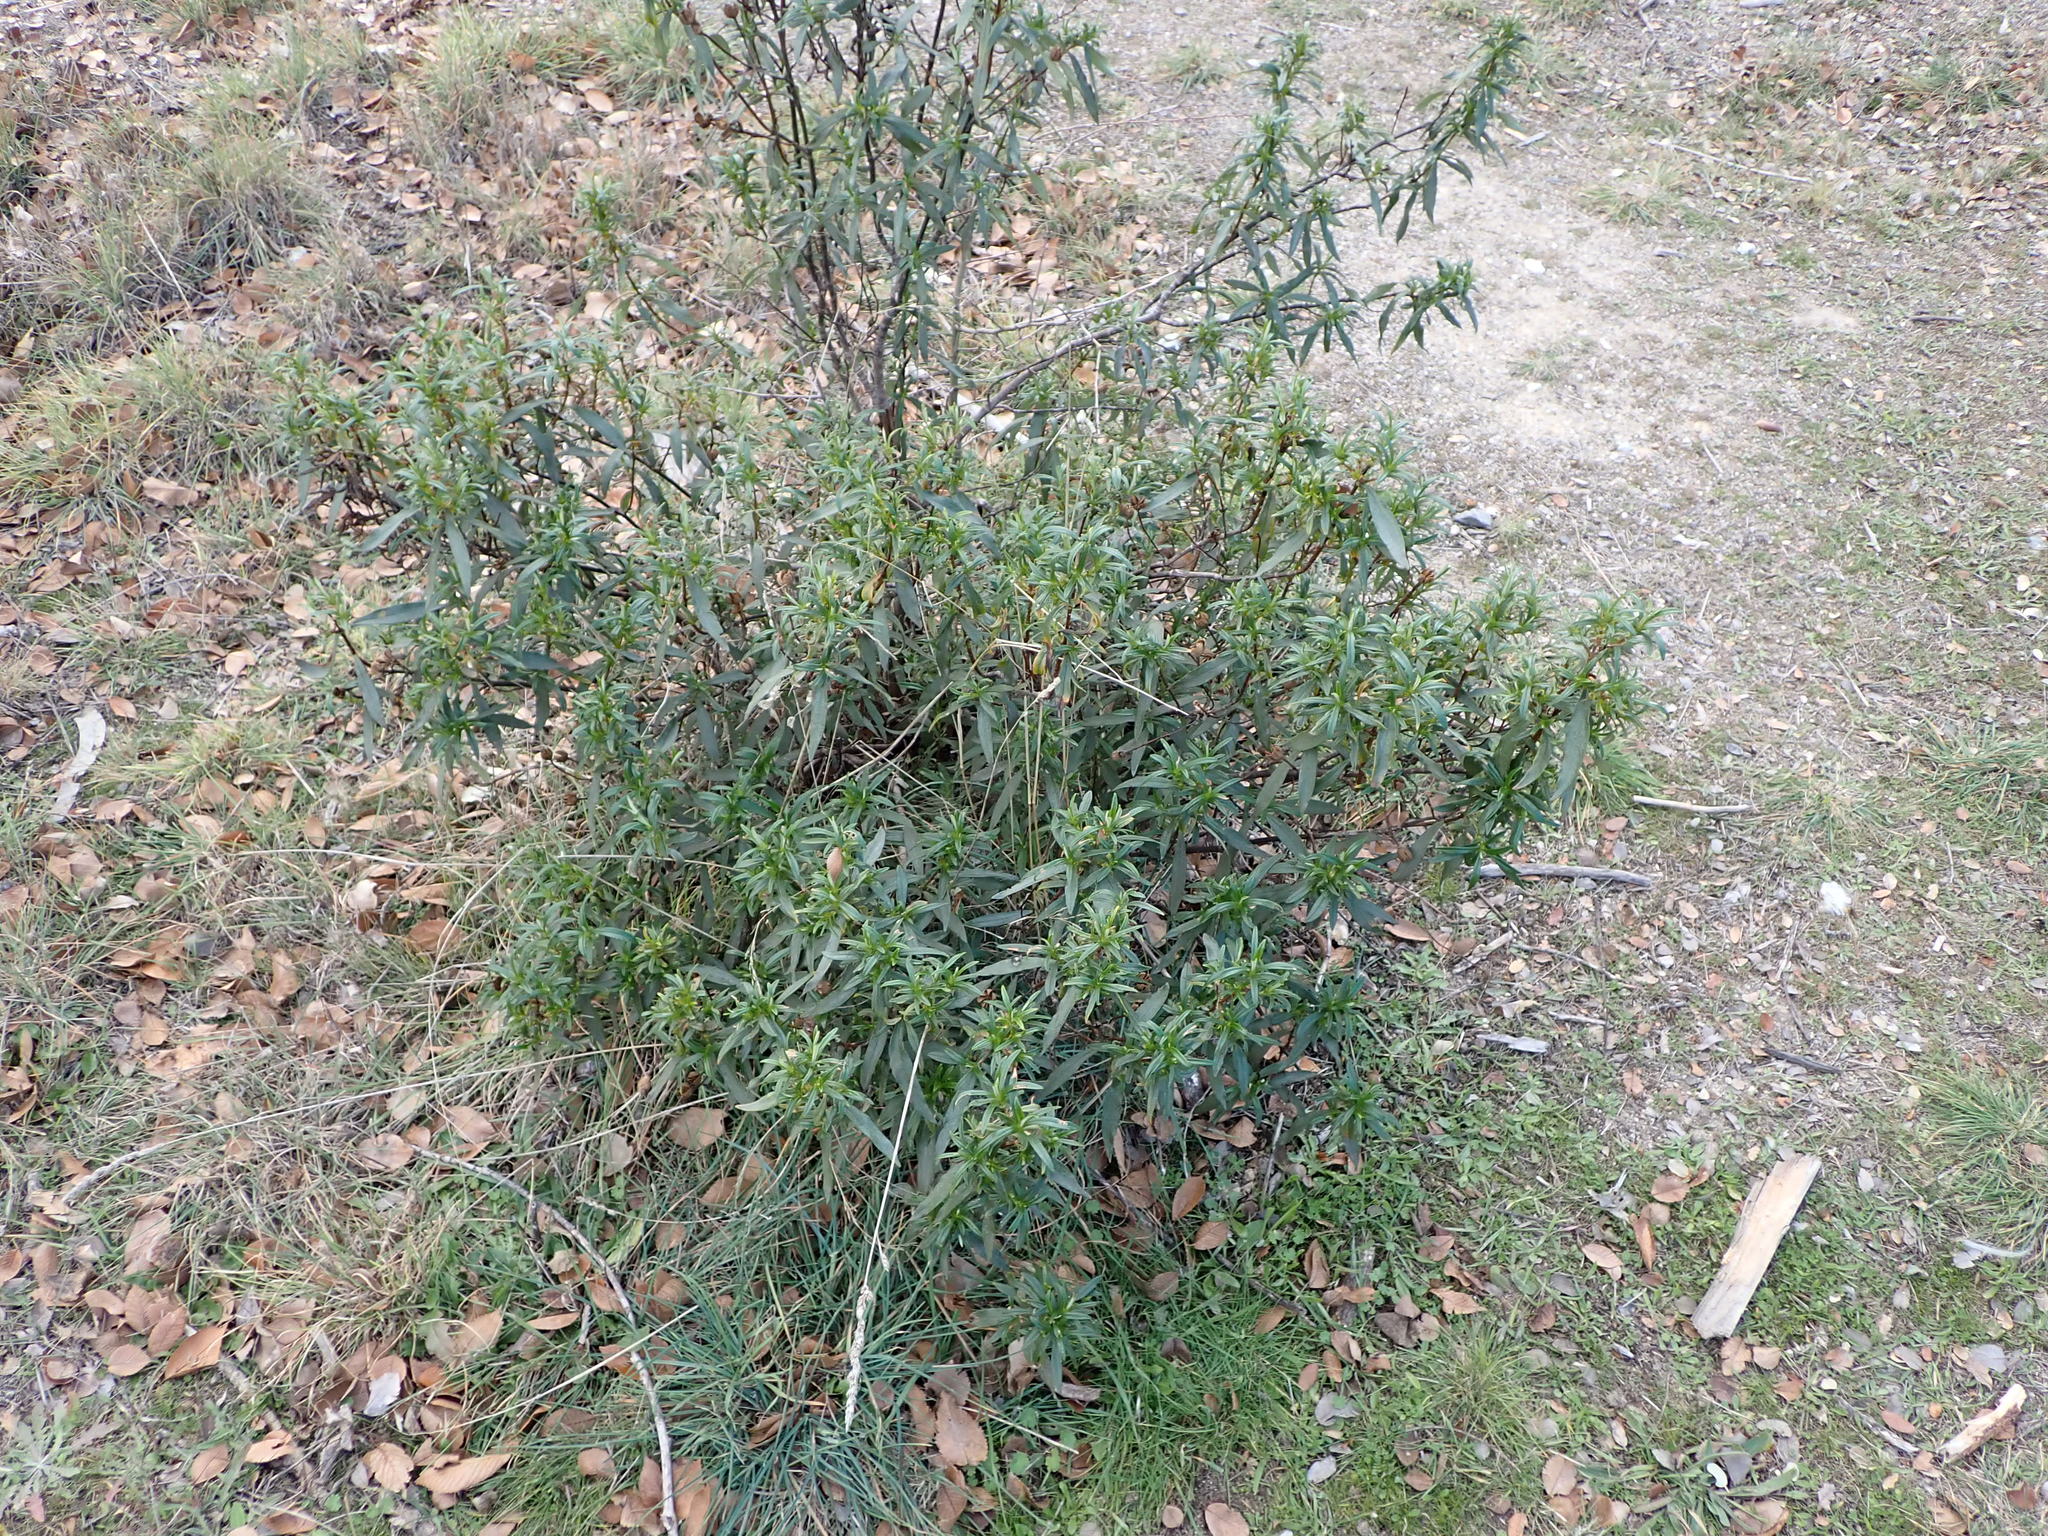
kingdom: Plantae
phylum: Tracheophyta
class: Magnoliopsida
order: Malvales
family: Cistaceae
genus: Cistus
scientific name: Cistus ladanifer
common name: Common gum cistus
